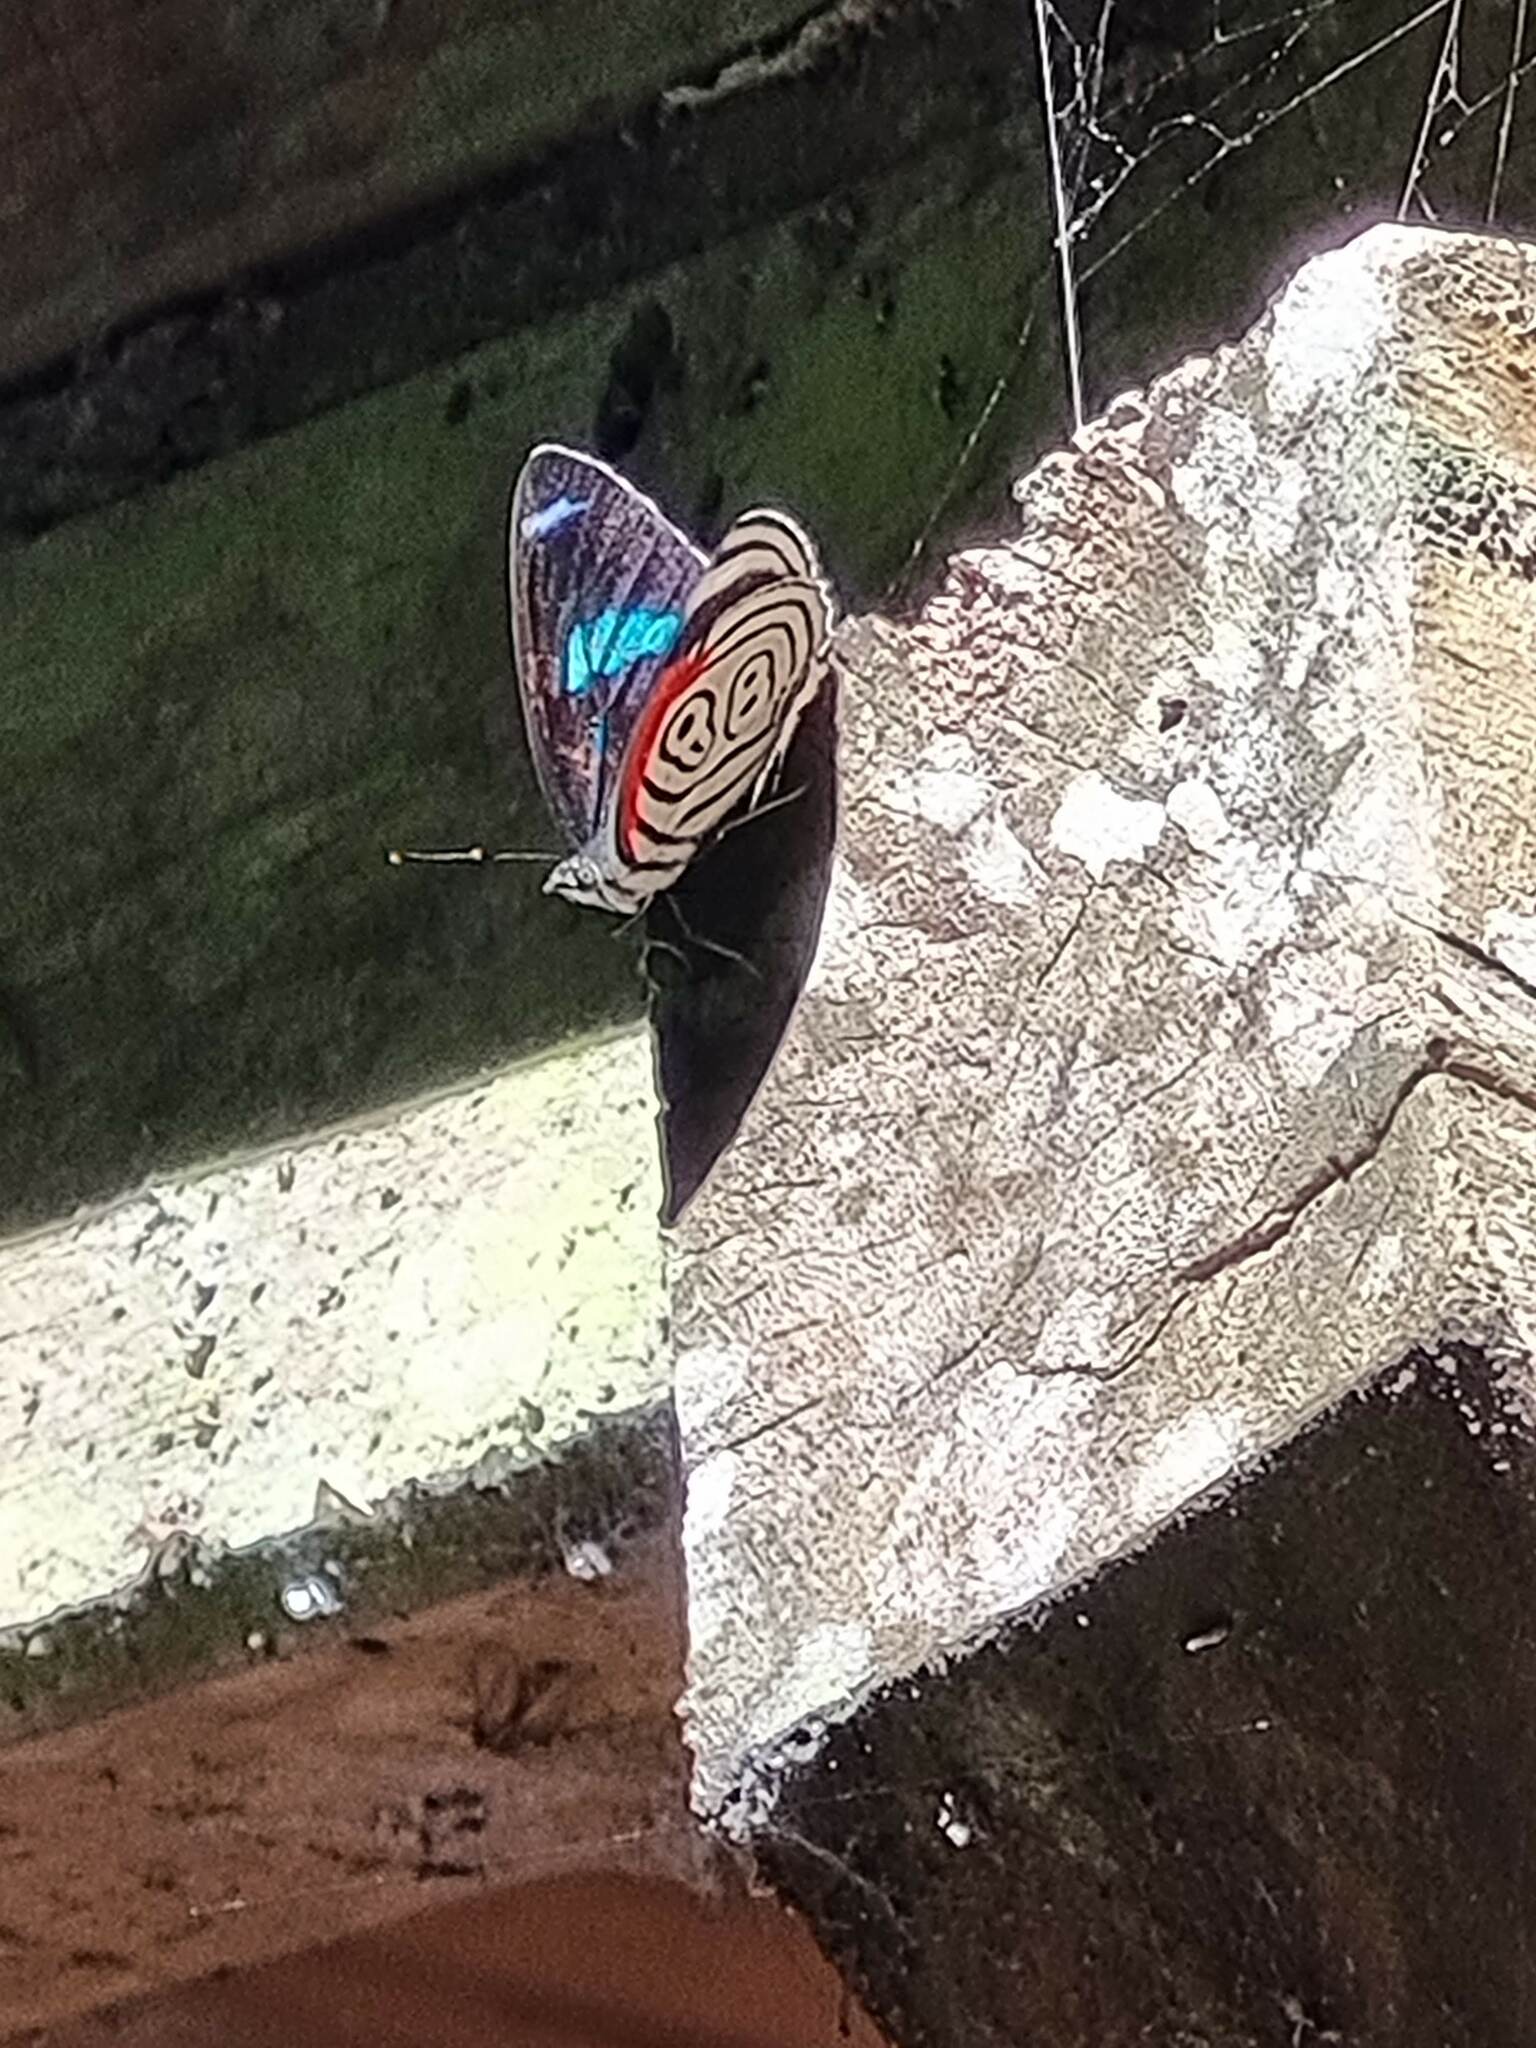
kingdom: Animalia
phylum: Arthropoda
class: Insecta
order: Lepidoptera
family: Nymphalidae
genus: Diaethria
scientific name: Diaethria clymena
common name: Widespread eighty-eight
